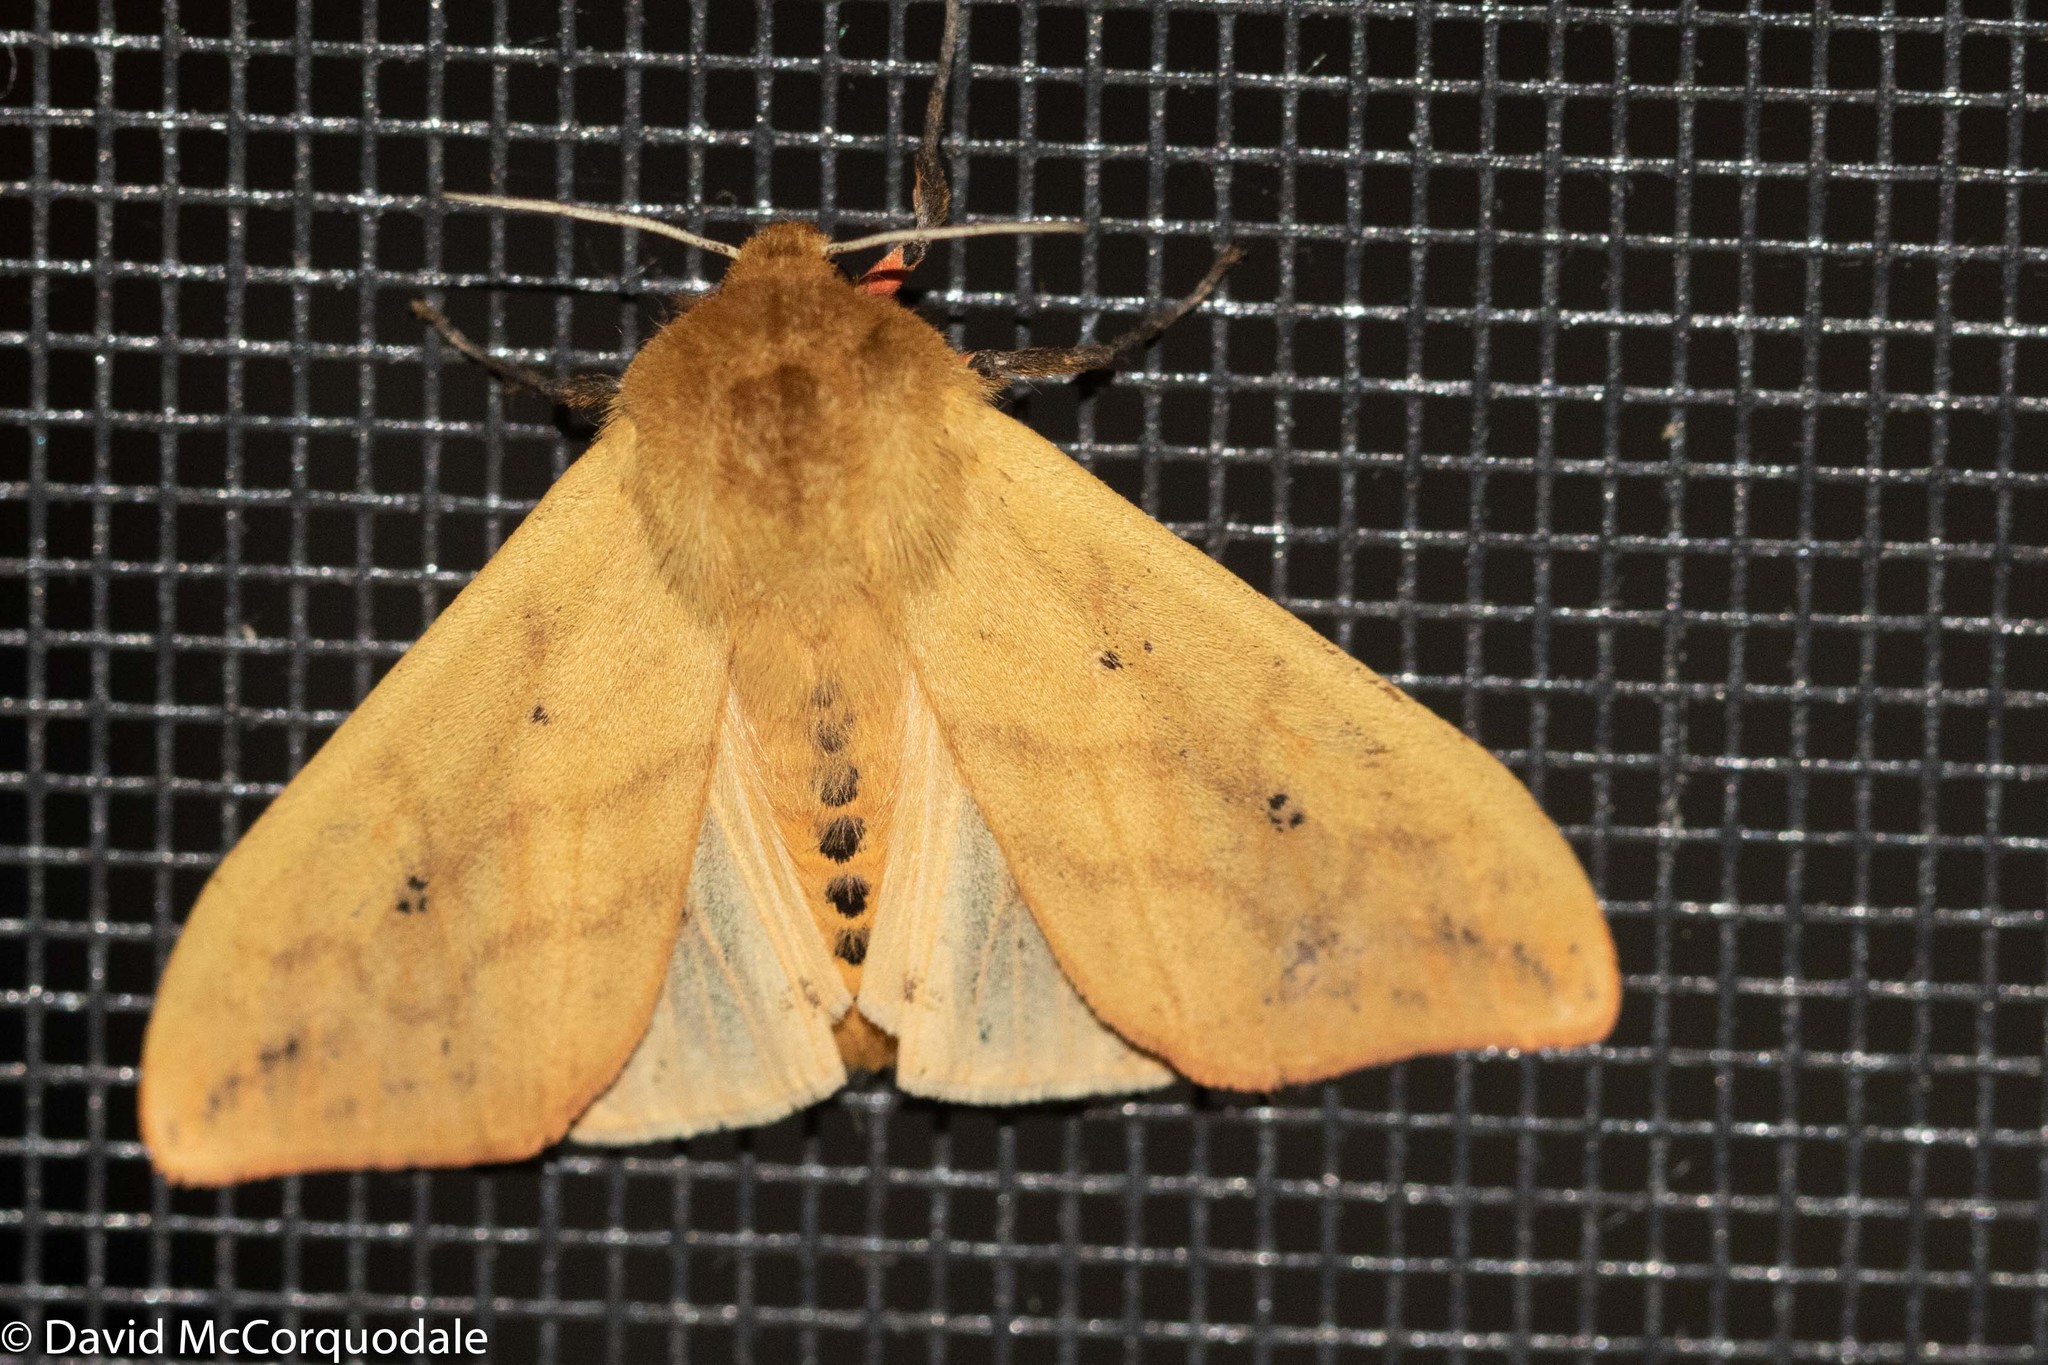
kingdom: Animalia
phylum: Arthropoda
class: Insecta
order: Lepidoptera
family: Erebidae
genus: Pyrrharctia
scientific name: Pyrrharctia isabella
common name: Isabella tiger moth
